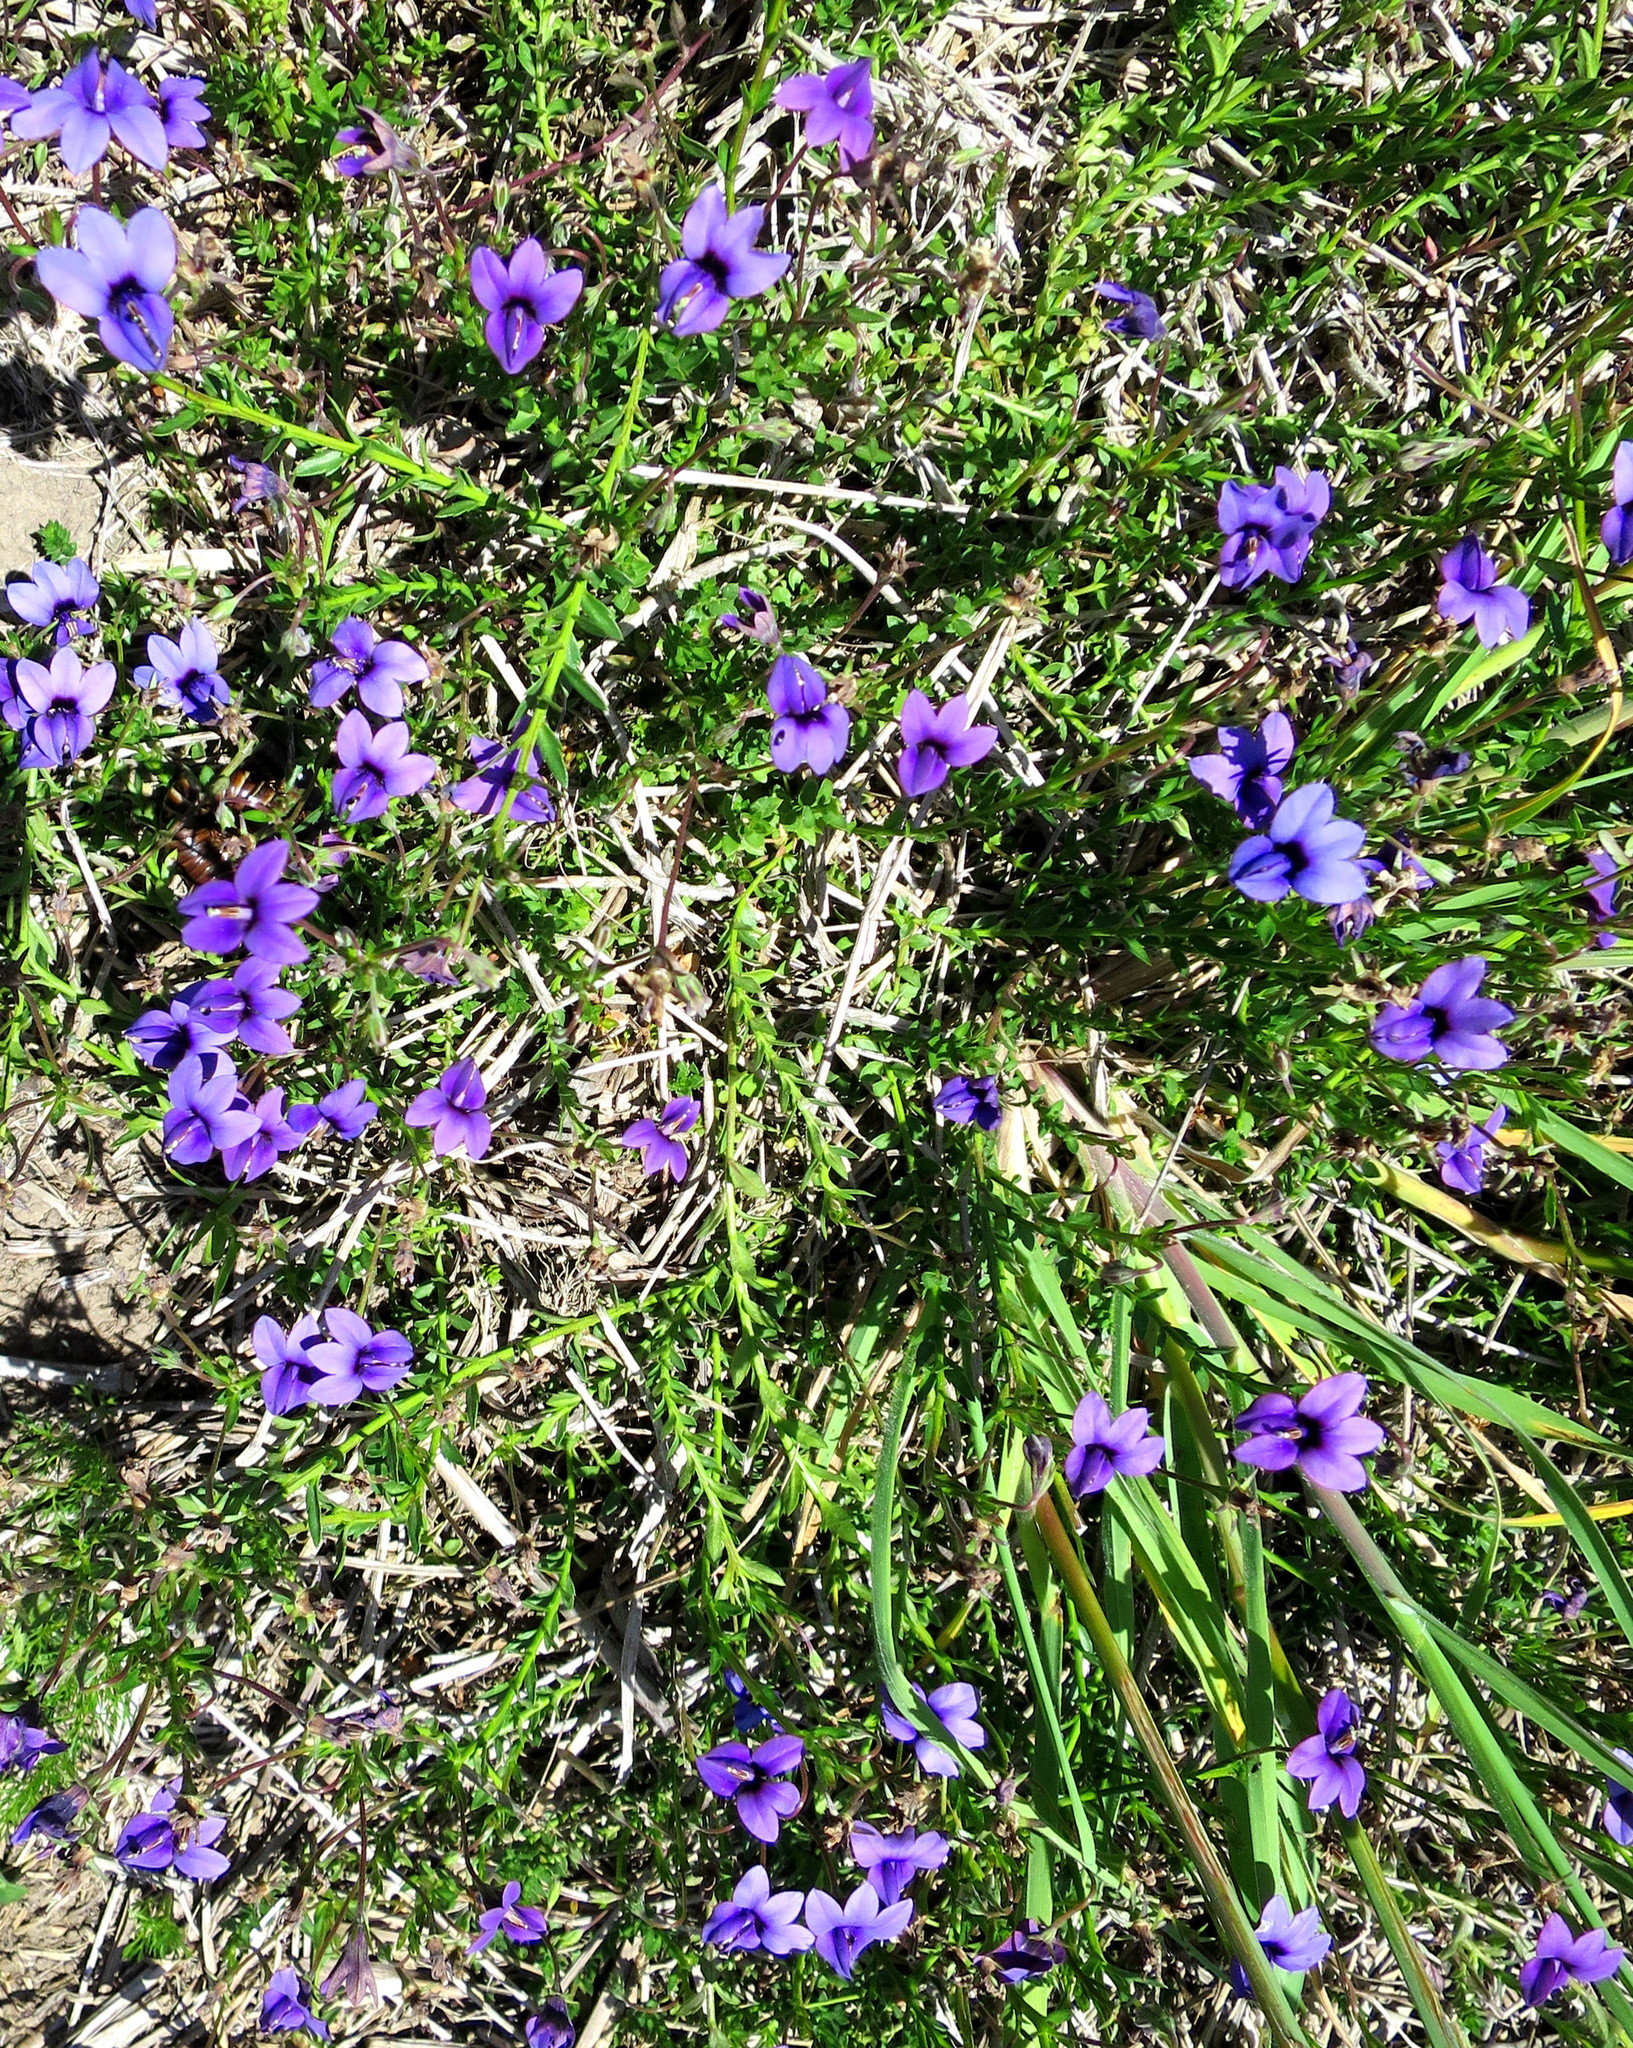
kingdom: Plantae
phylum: Tracheophyta
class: Magnoliopsida
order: Asterales
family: Campanulaceae
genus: Monopsis
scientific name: Monopsis unidentata
